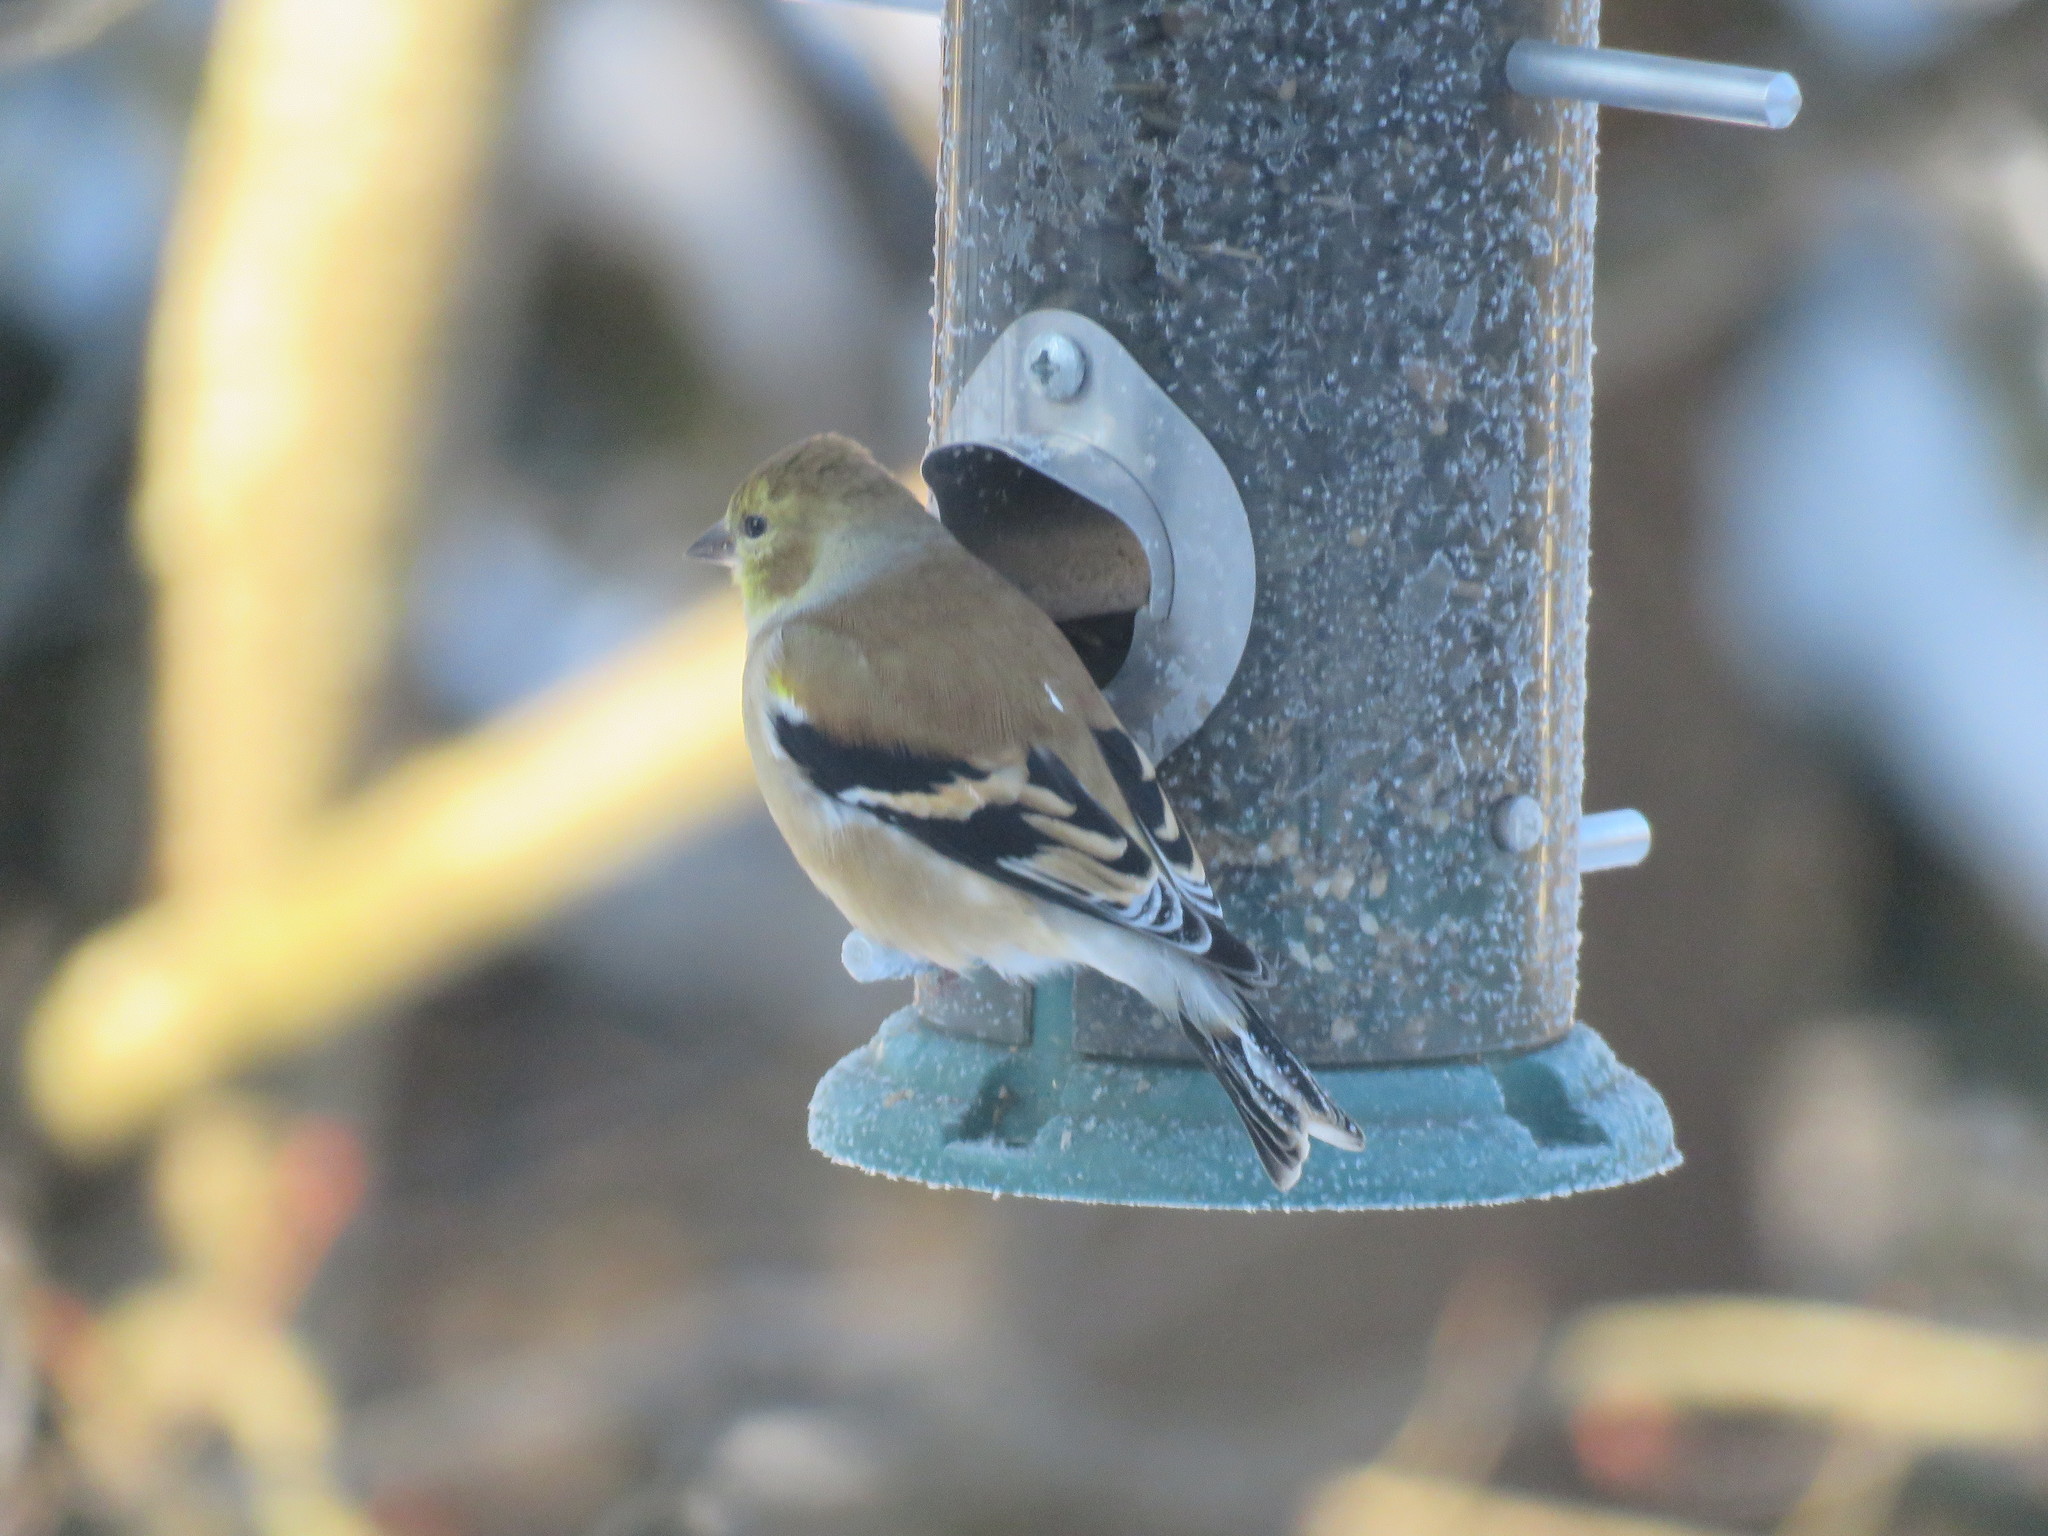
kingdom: Animalia
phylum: Chordata
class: Aves
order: Passeriformes
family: Fringillidae
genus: Spinus
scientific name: Spinus tristis
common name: American goldfinch
